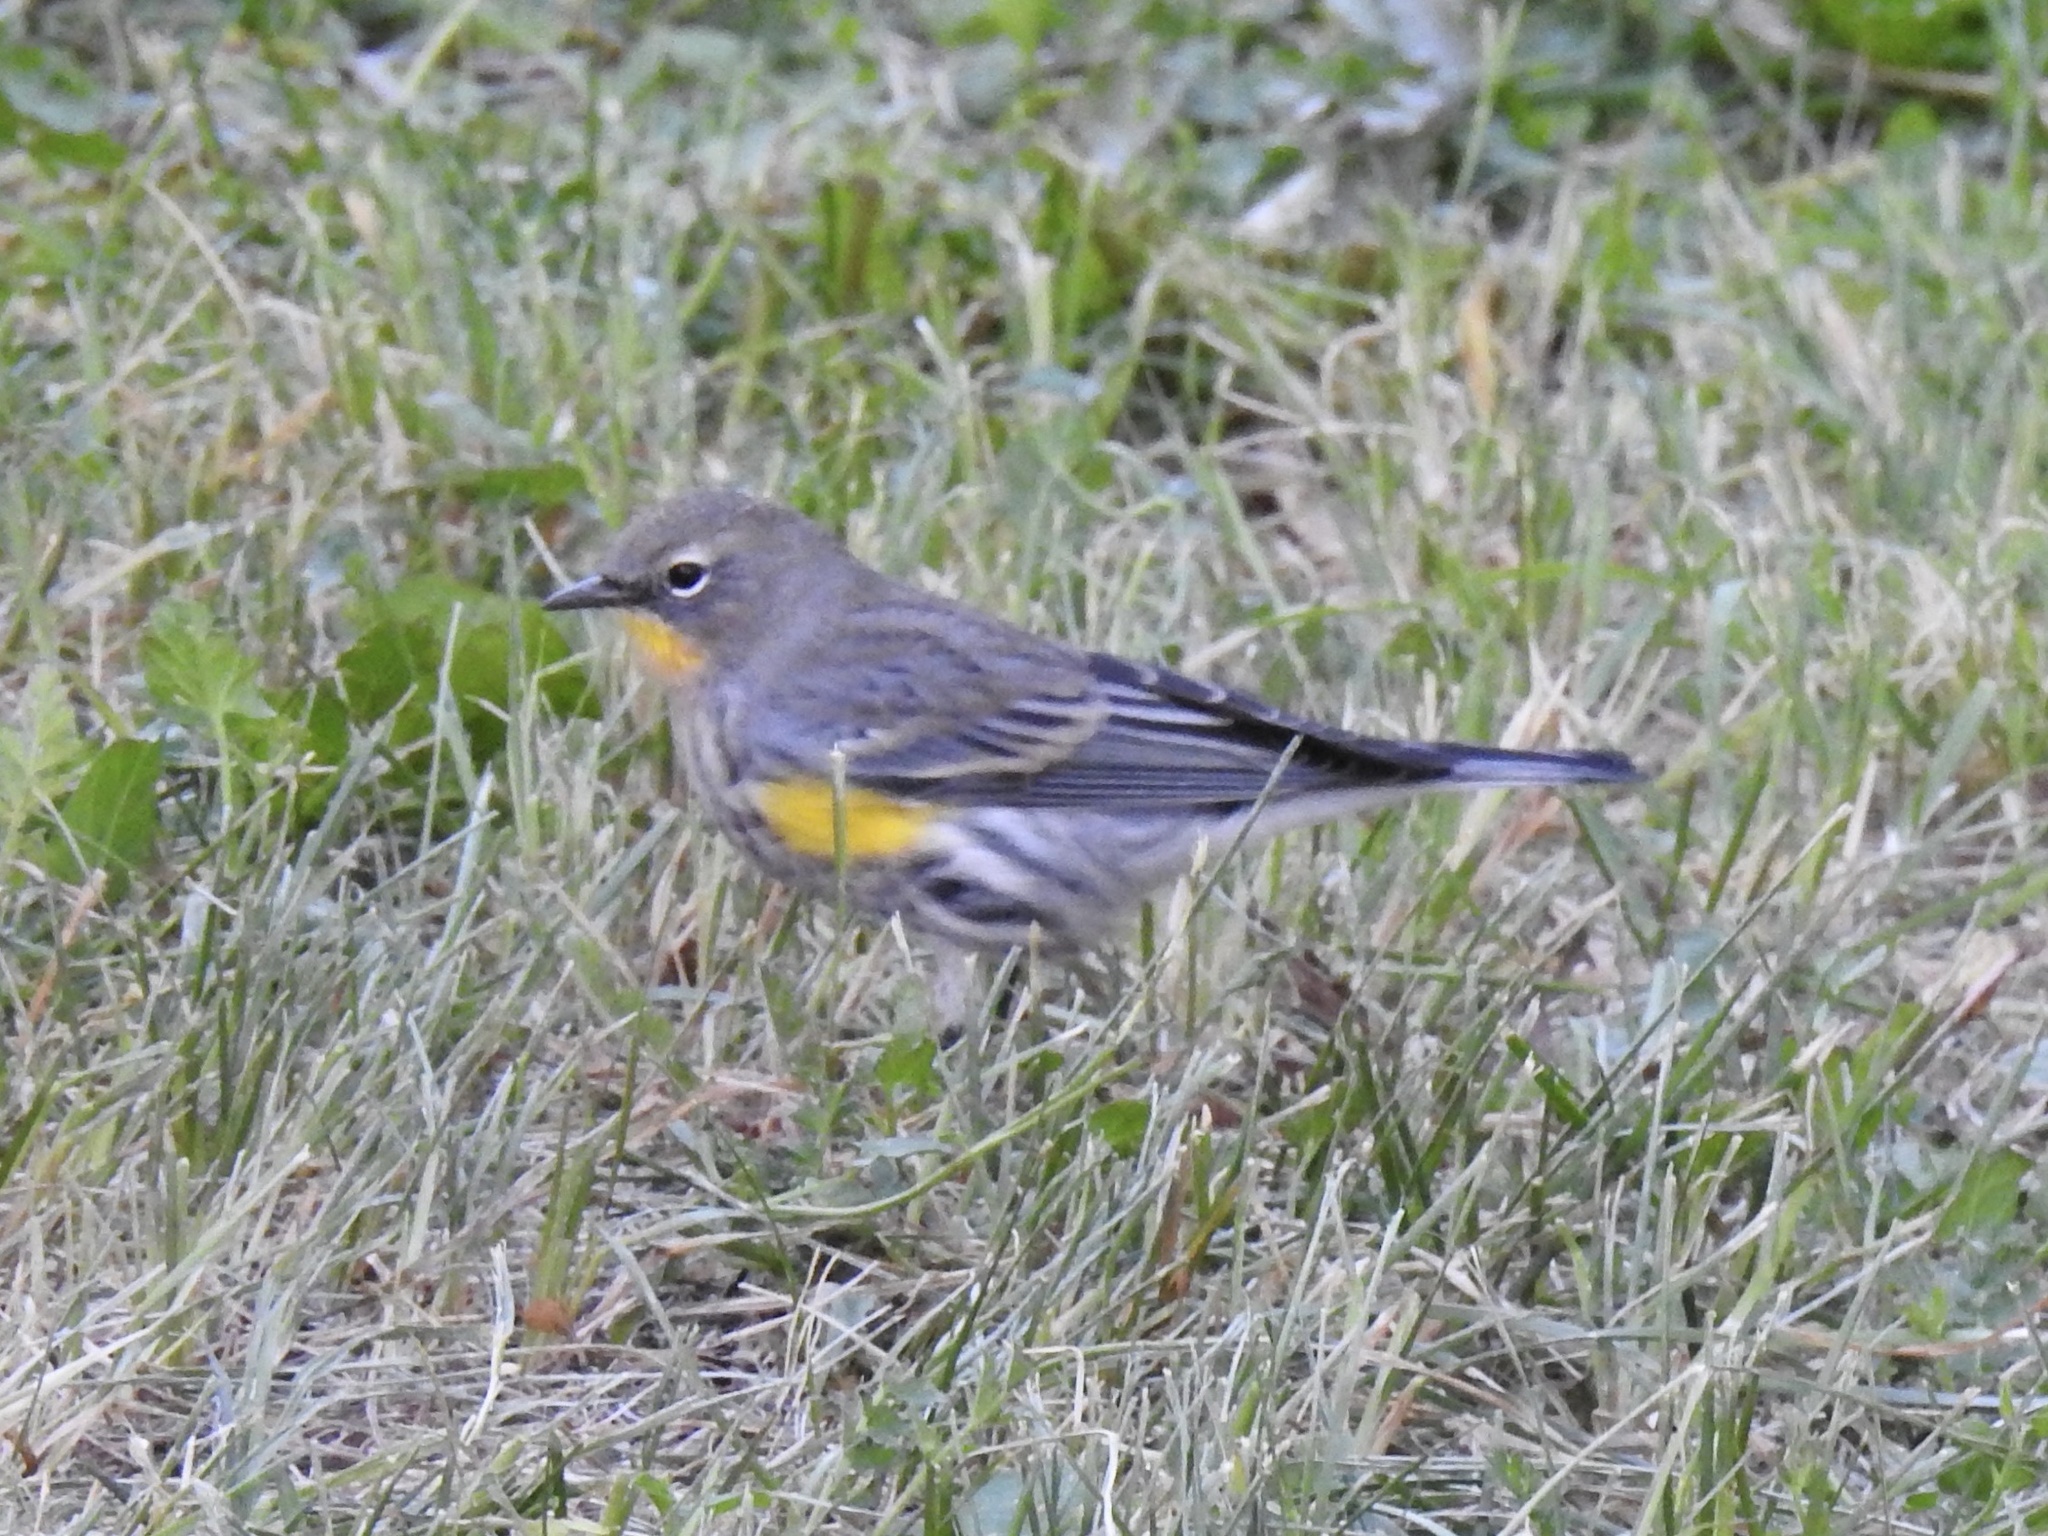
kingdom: Animalia
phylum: Chordata
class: Aves
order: Passeriformes
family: Parulidae
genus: Setophaga
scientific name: Setophaga coronata
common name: Myrtle warbler
